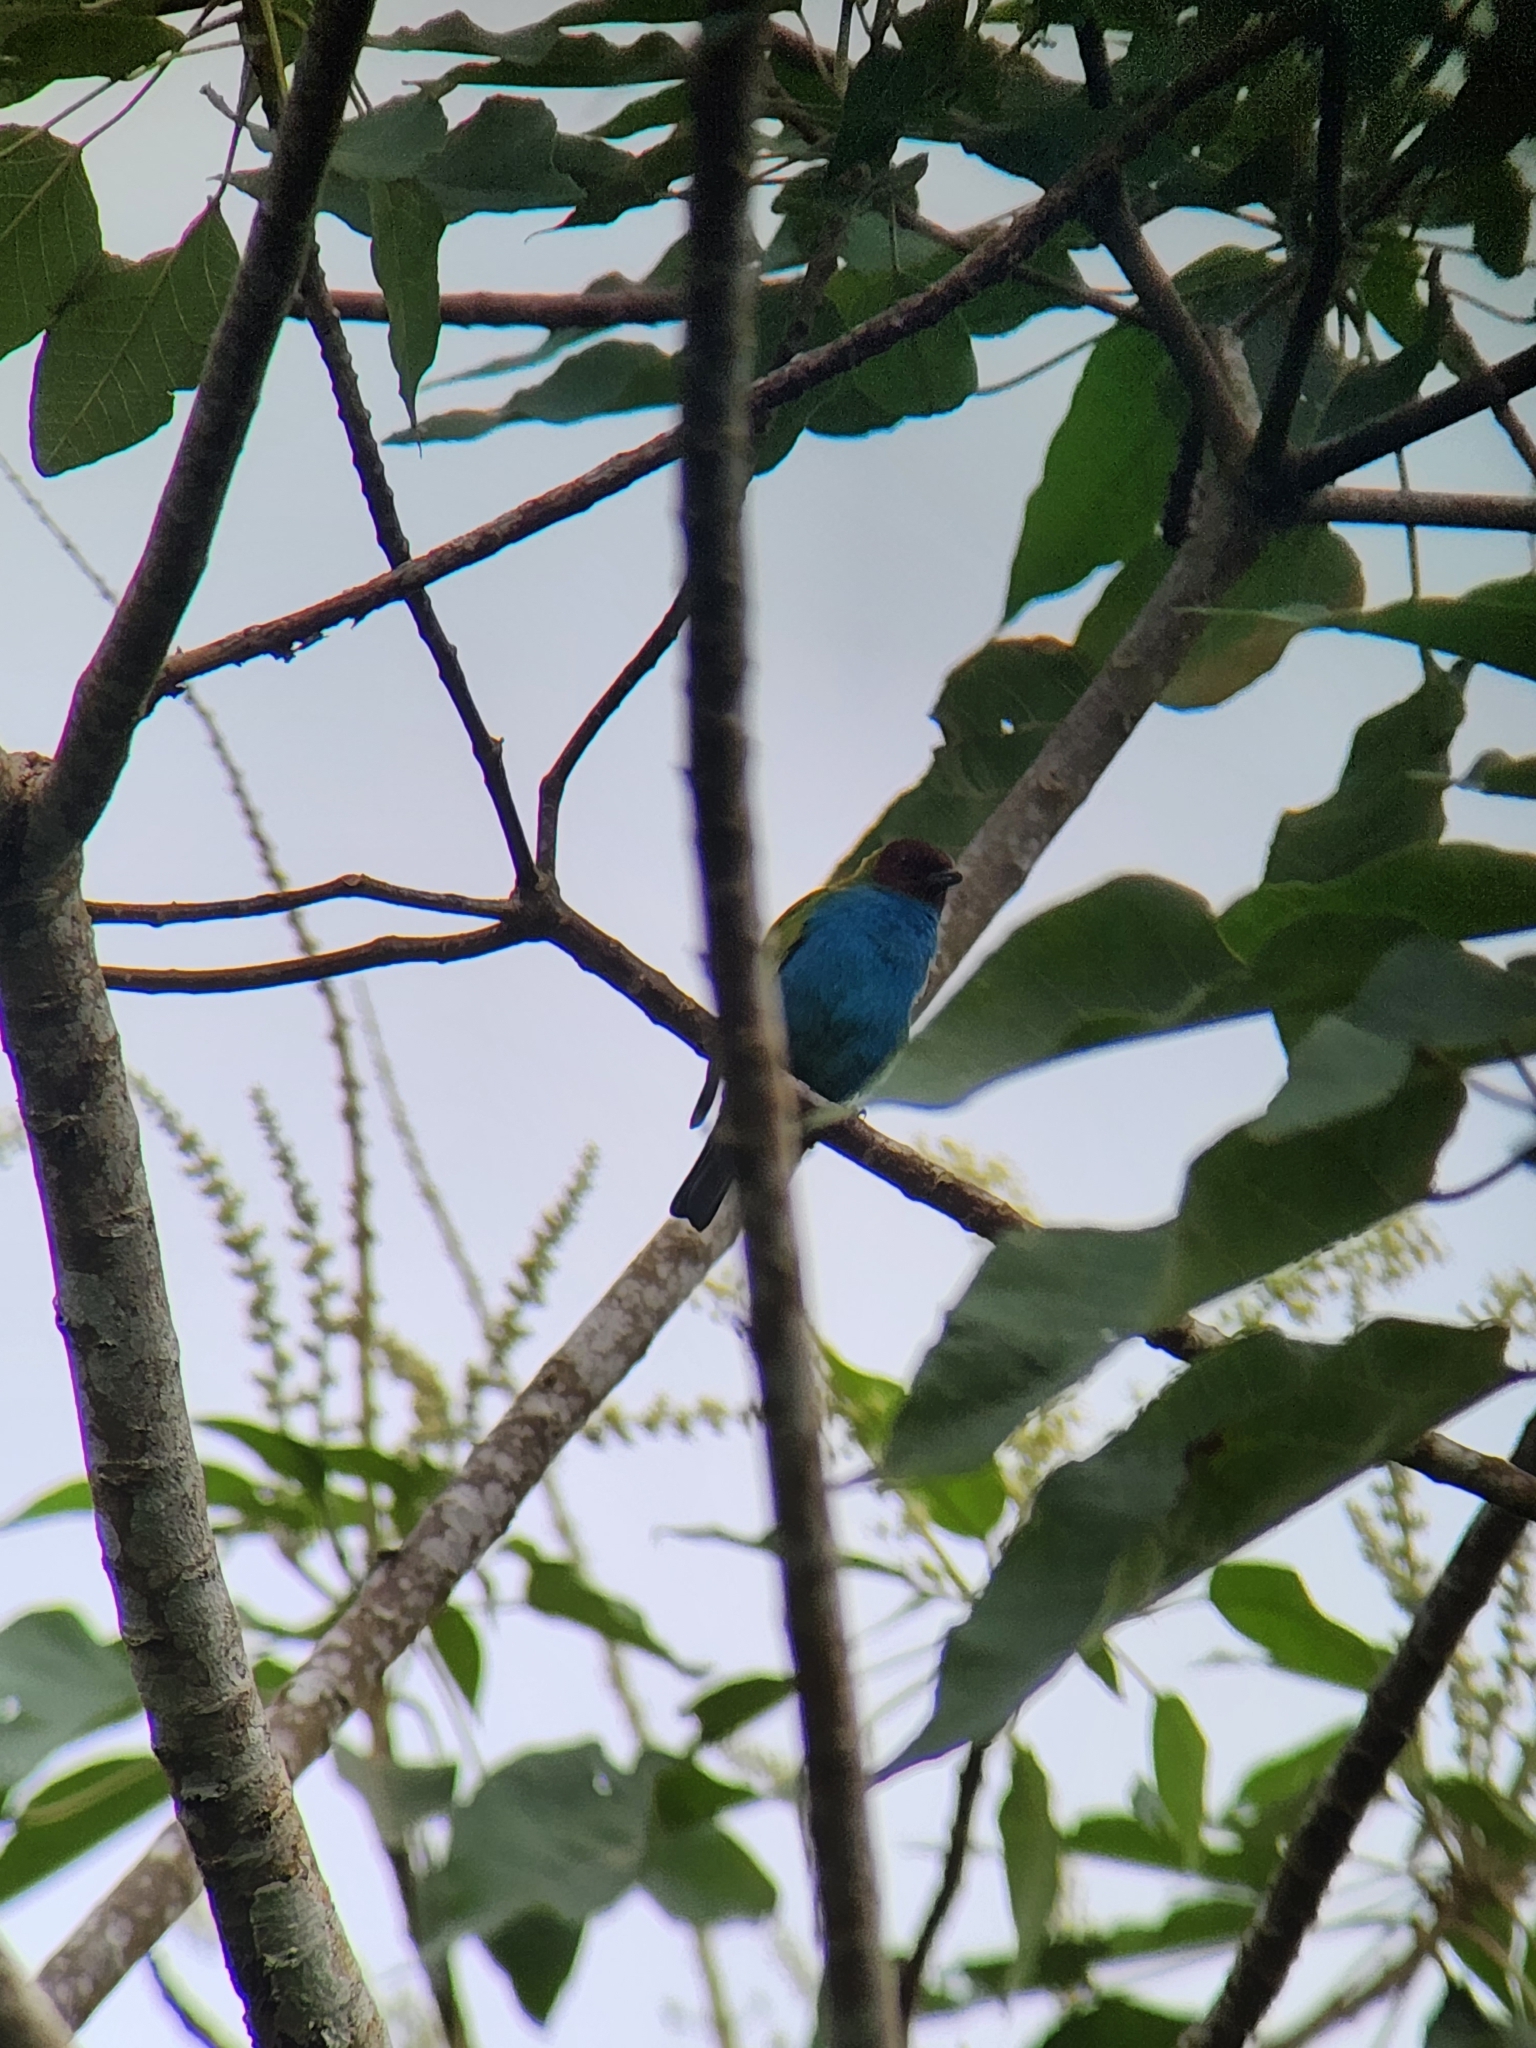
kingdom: Animalia
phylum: Chordata
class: Aves
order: Passeriformes
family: Thraupidae
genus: Tangara
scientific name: Tangara gyrola
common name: Bay-headed tanager
